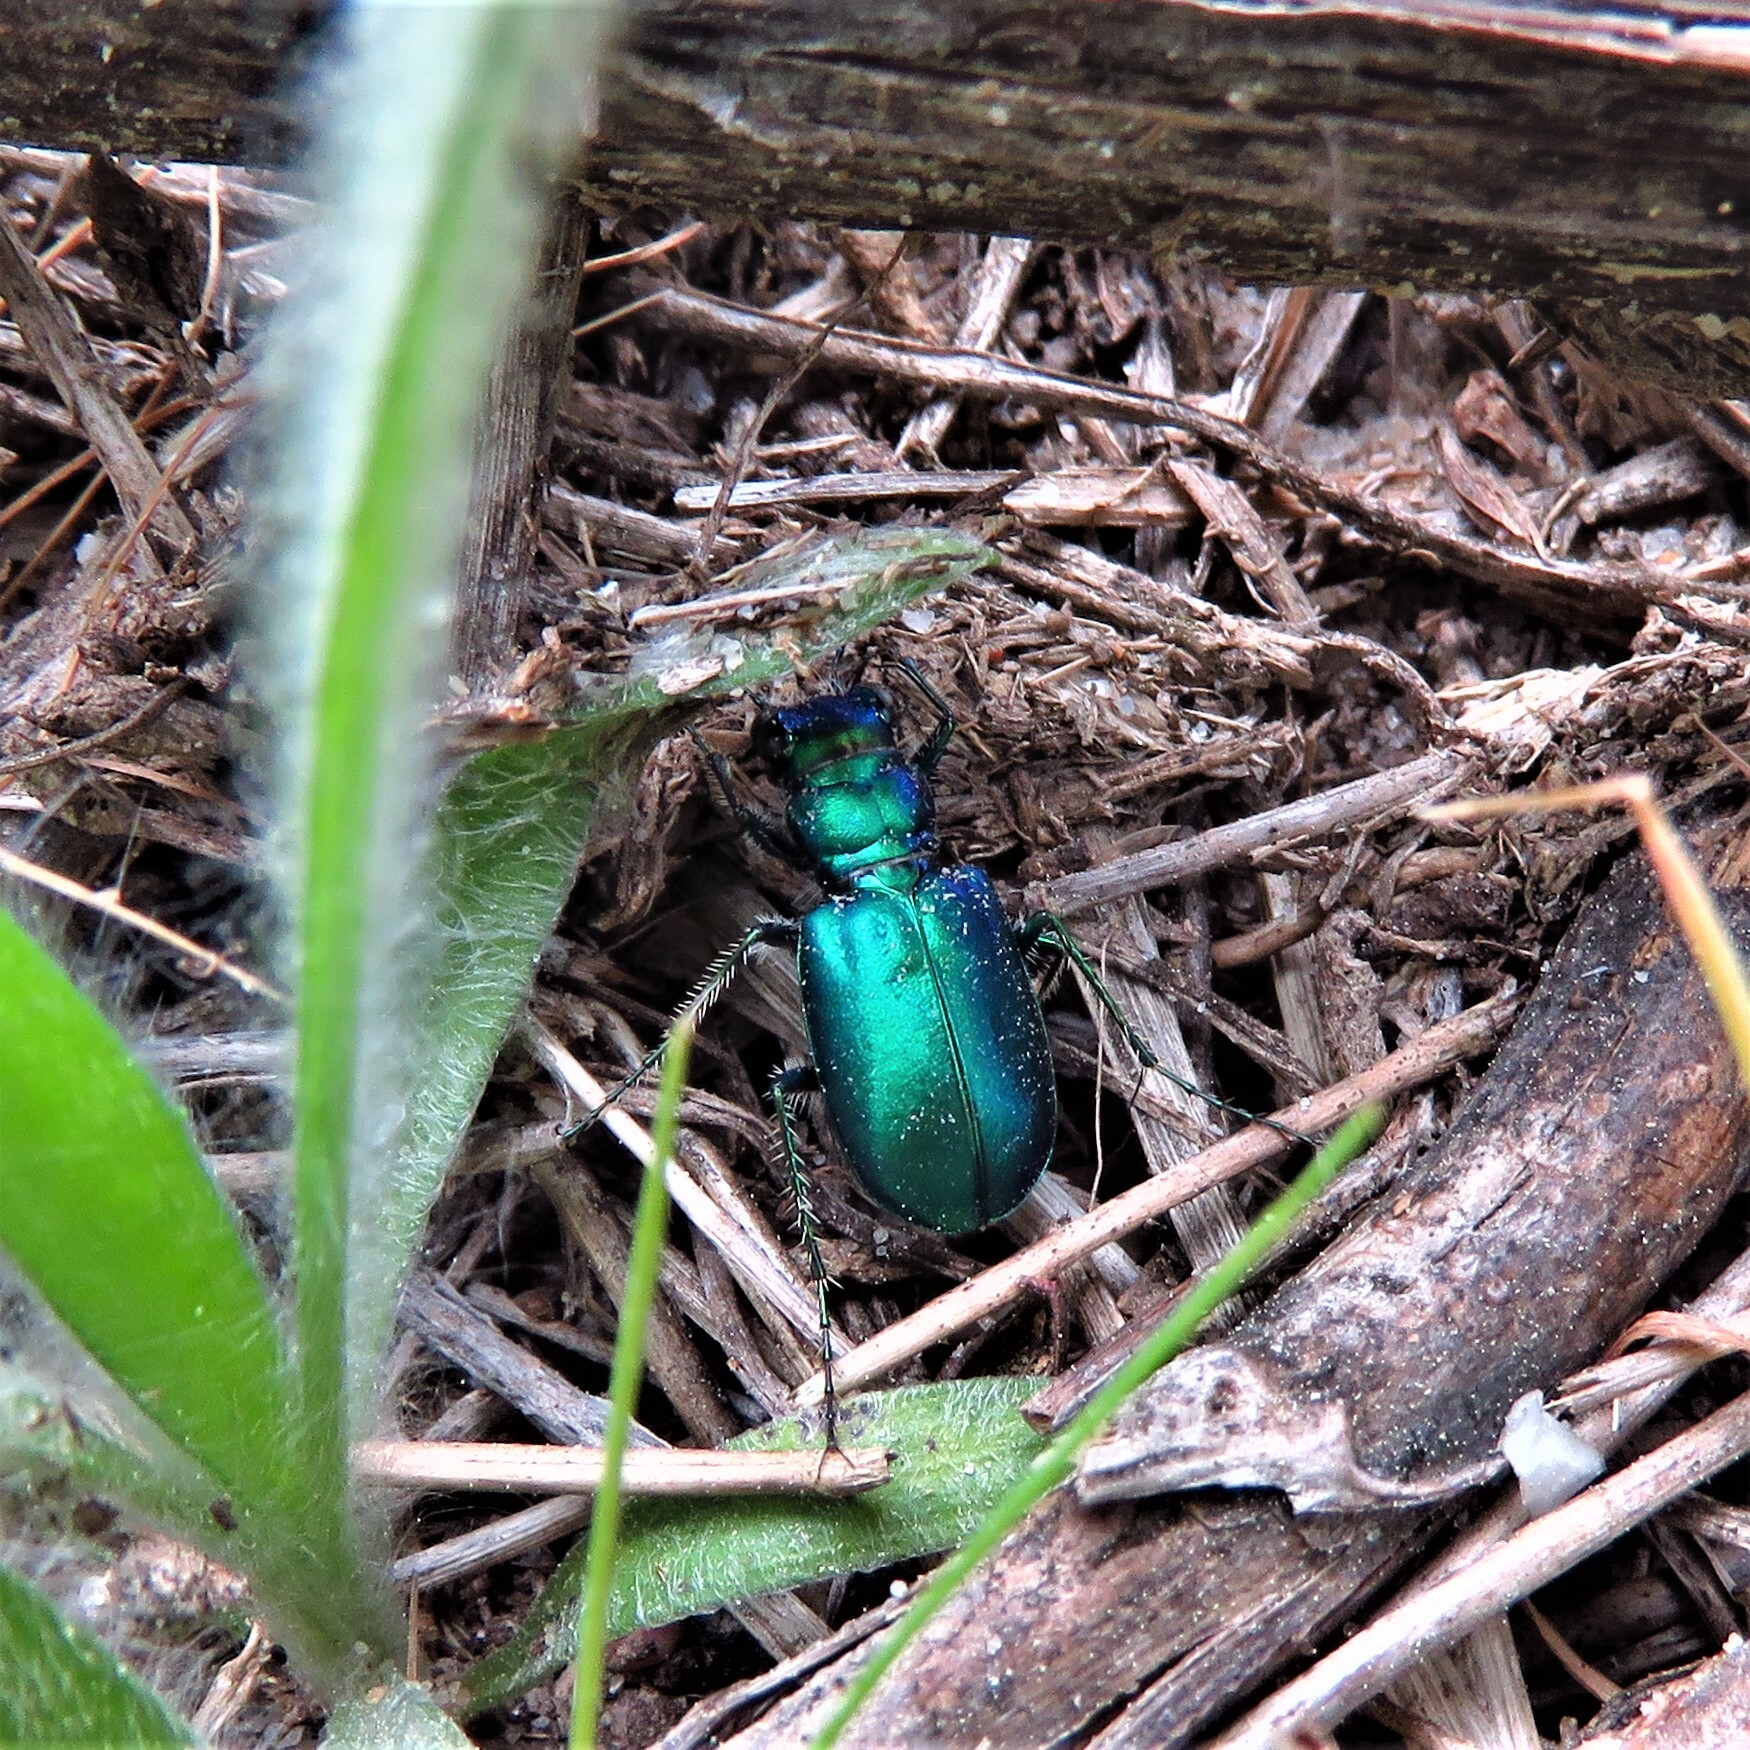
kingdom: Animalia
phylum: Arthropoda
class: Insecta
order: Coleoptera
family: Carabidae
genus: Cicindela
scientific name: Cicindela scutellaris
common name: Festive tiger beetle
